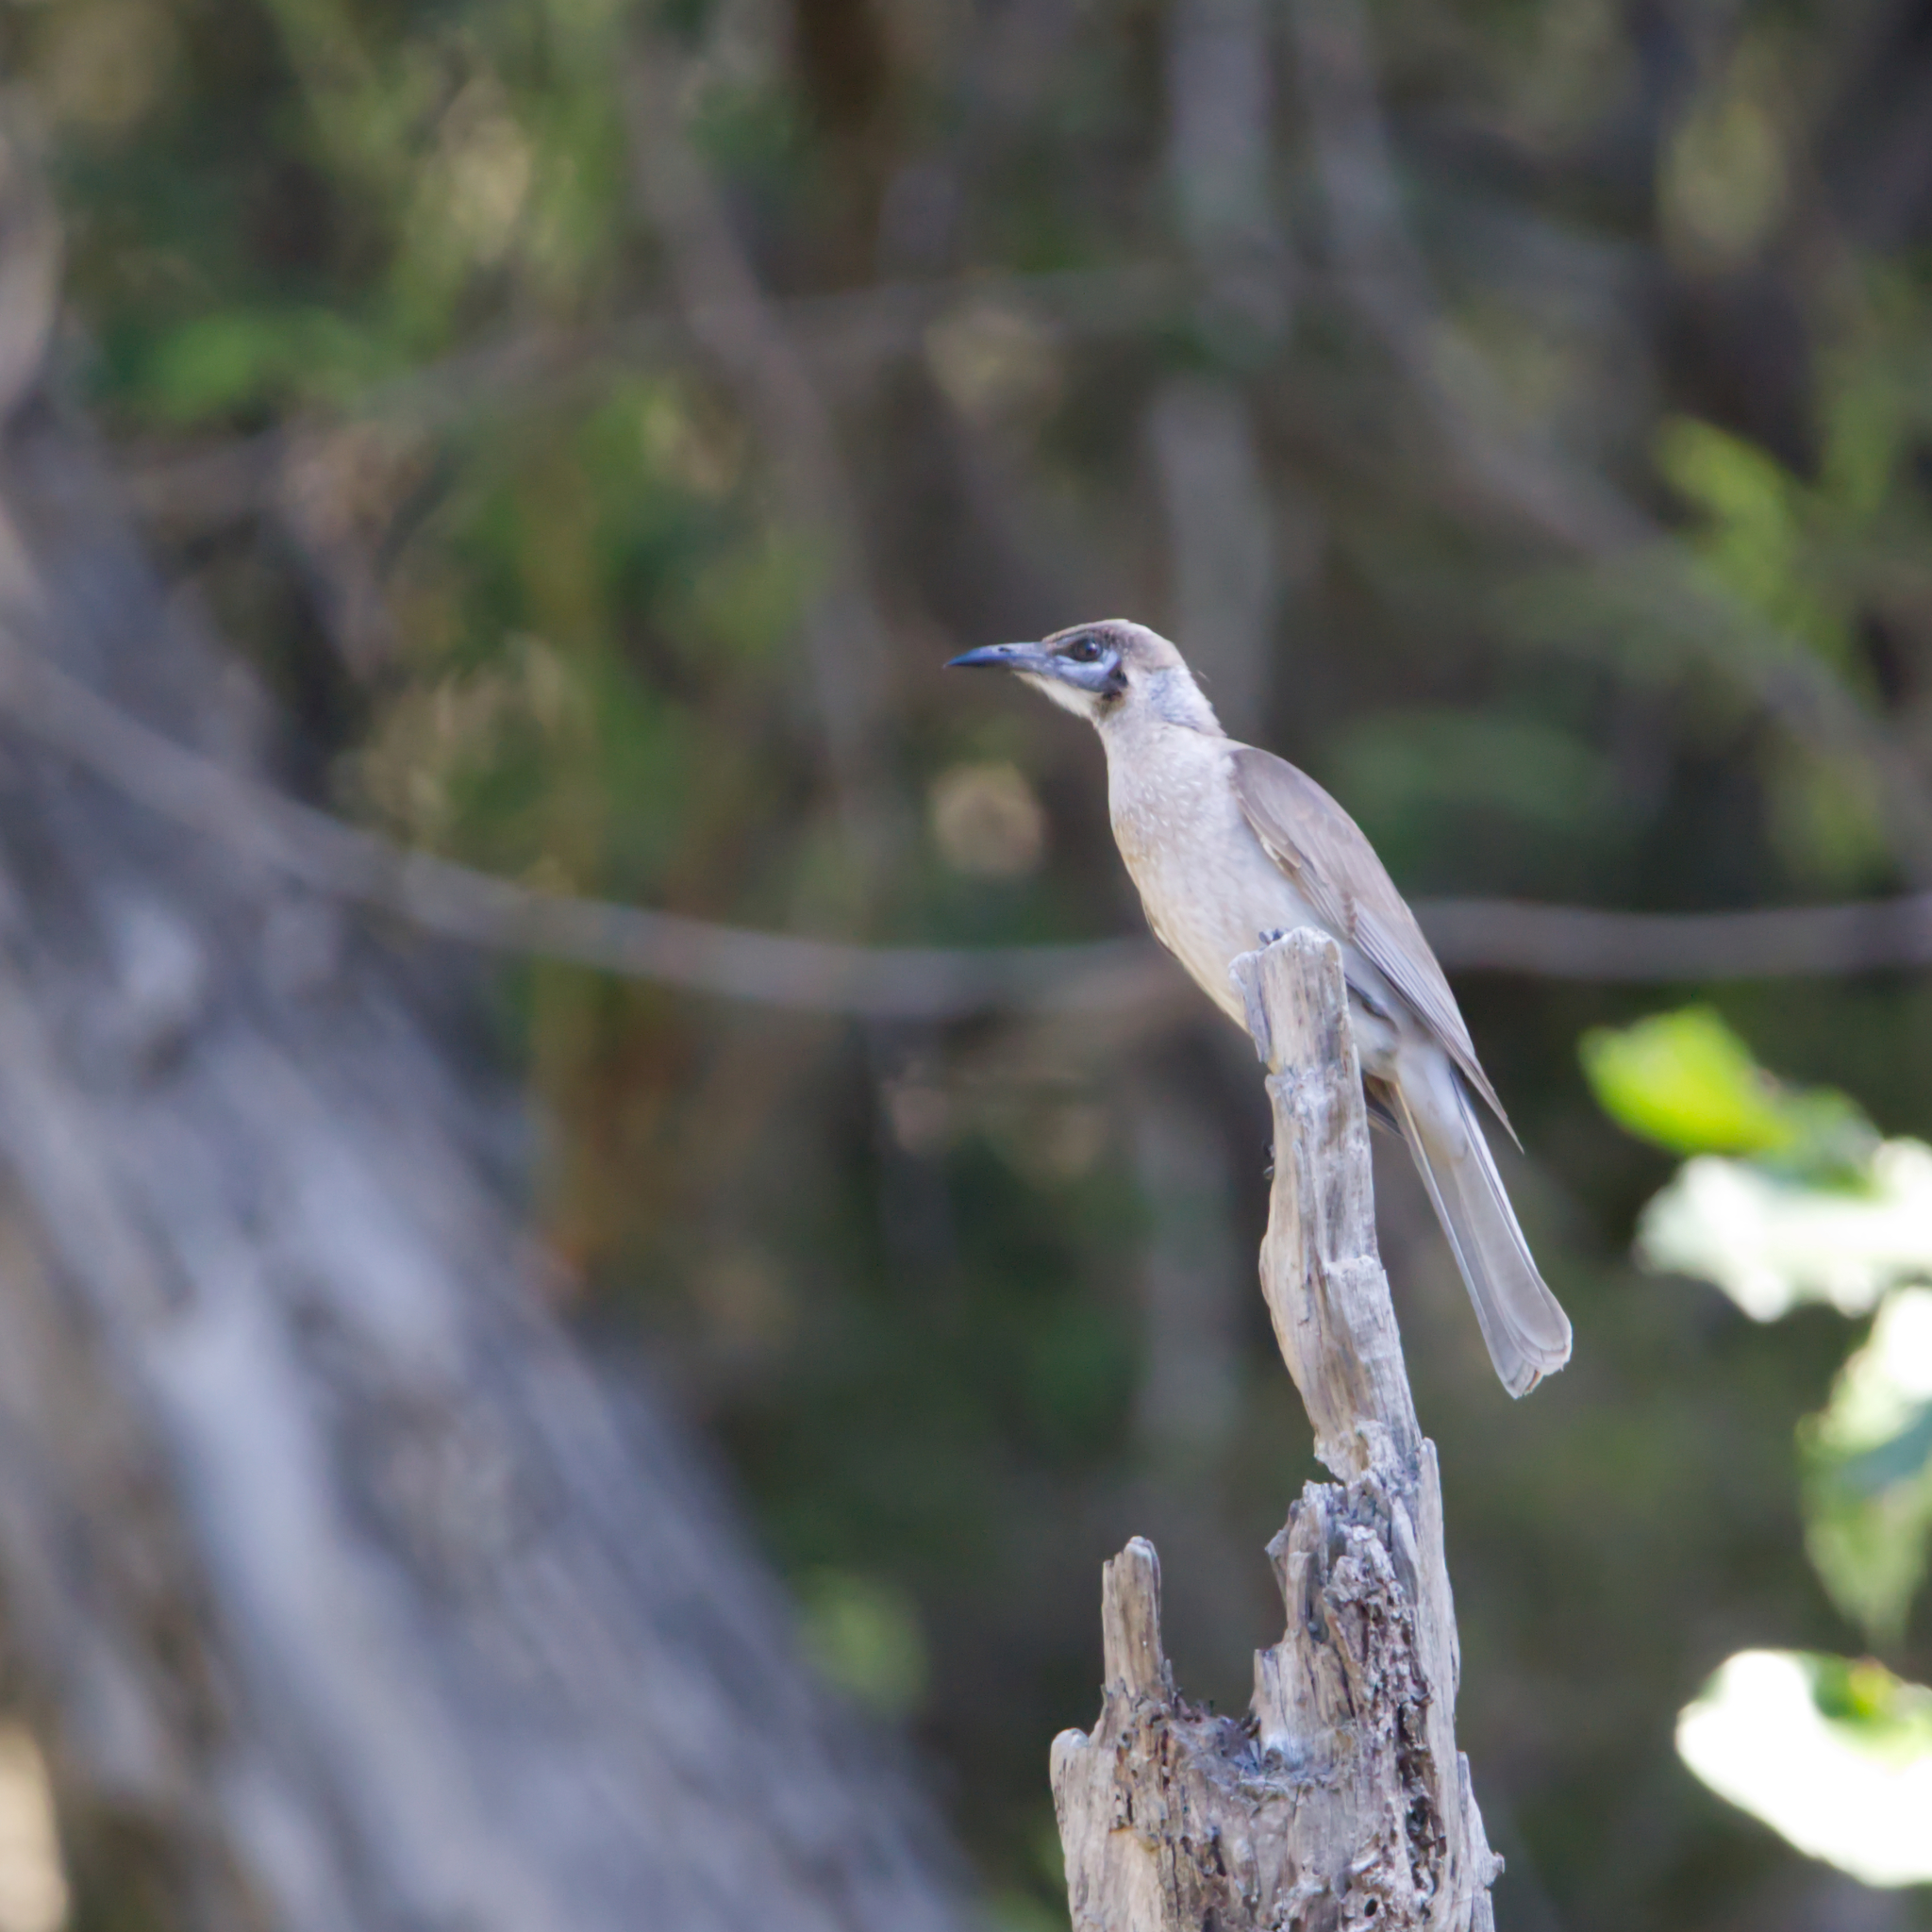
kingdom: Animalia
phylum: Chordata
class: Aves
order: Passeriformes
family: Meliphagidae
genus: Philemon
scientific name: Philemon citreogularis
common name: Little friarbird
